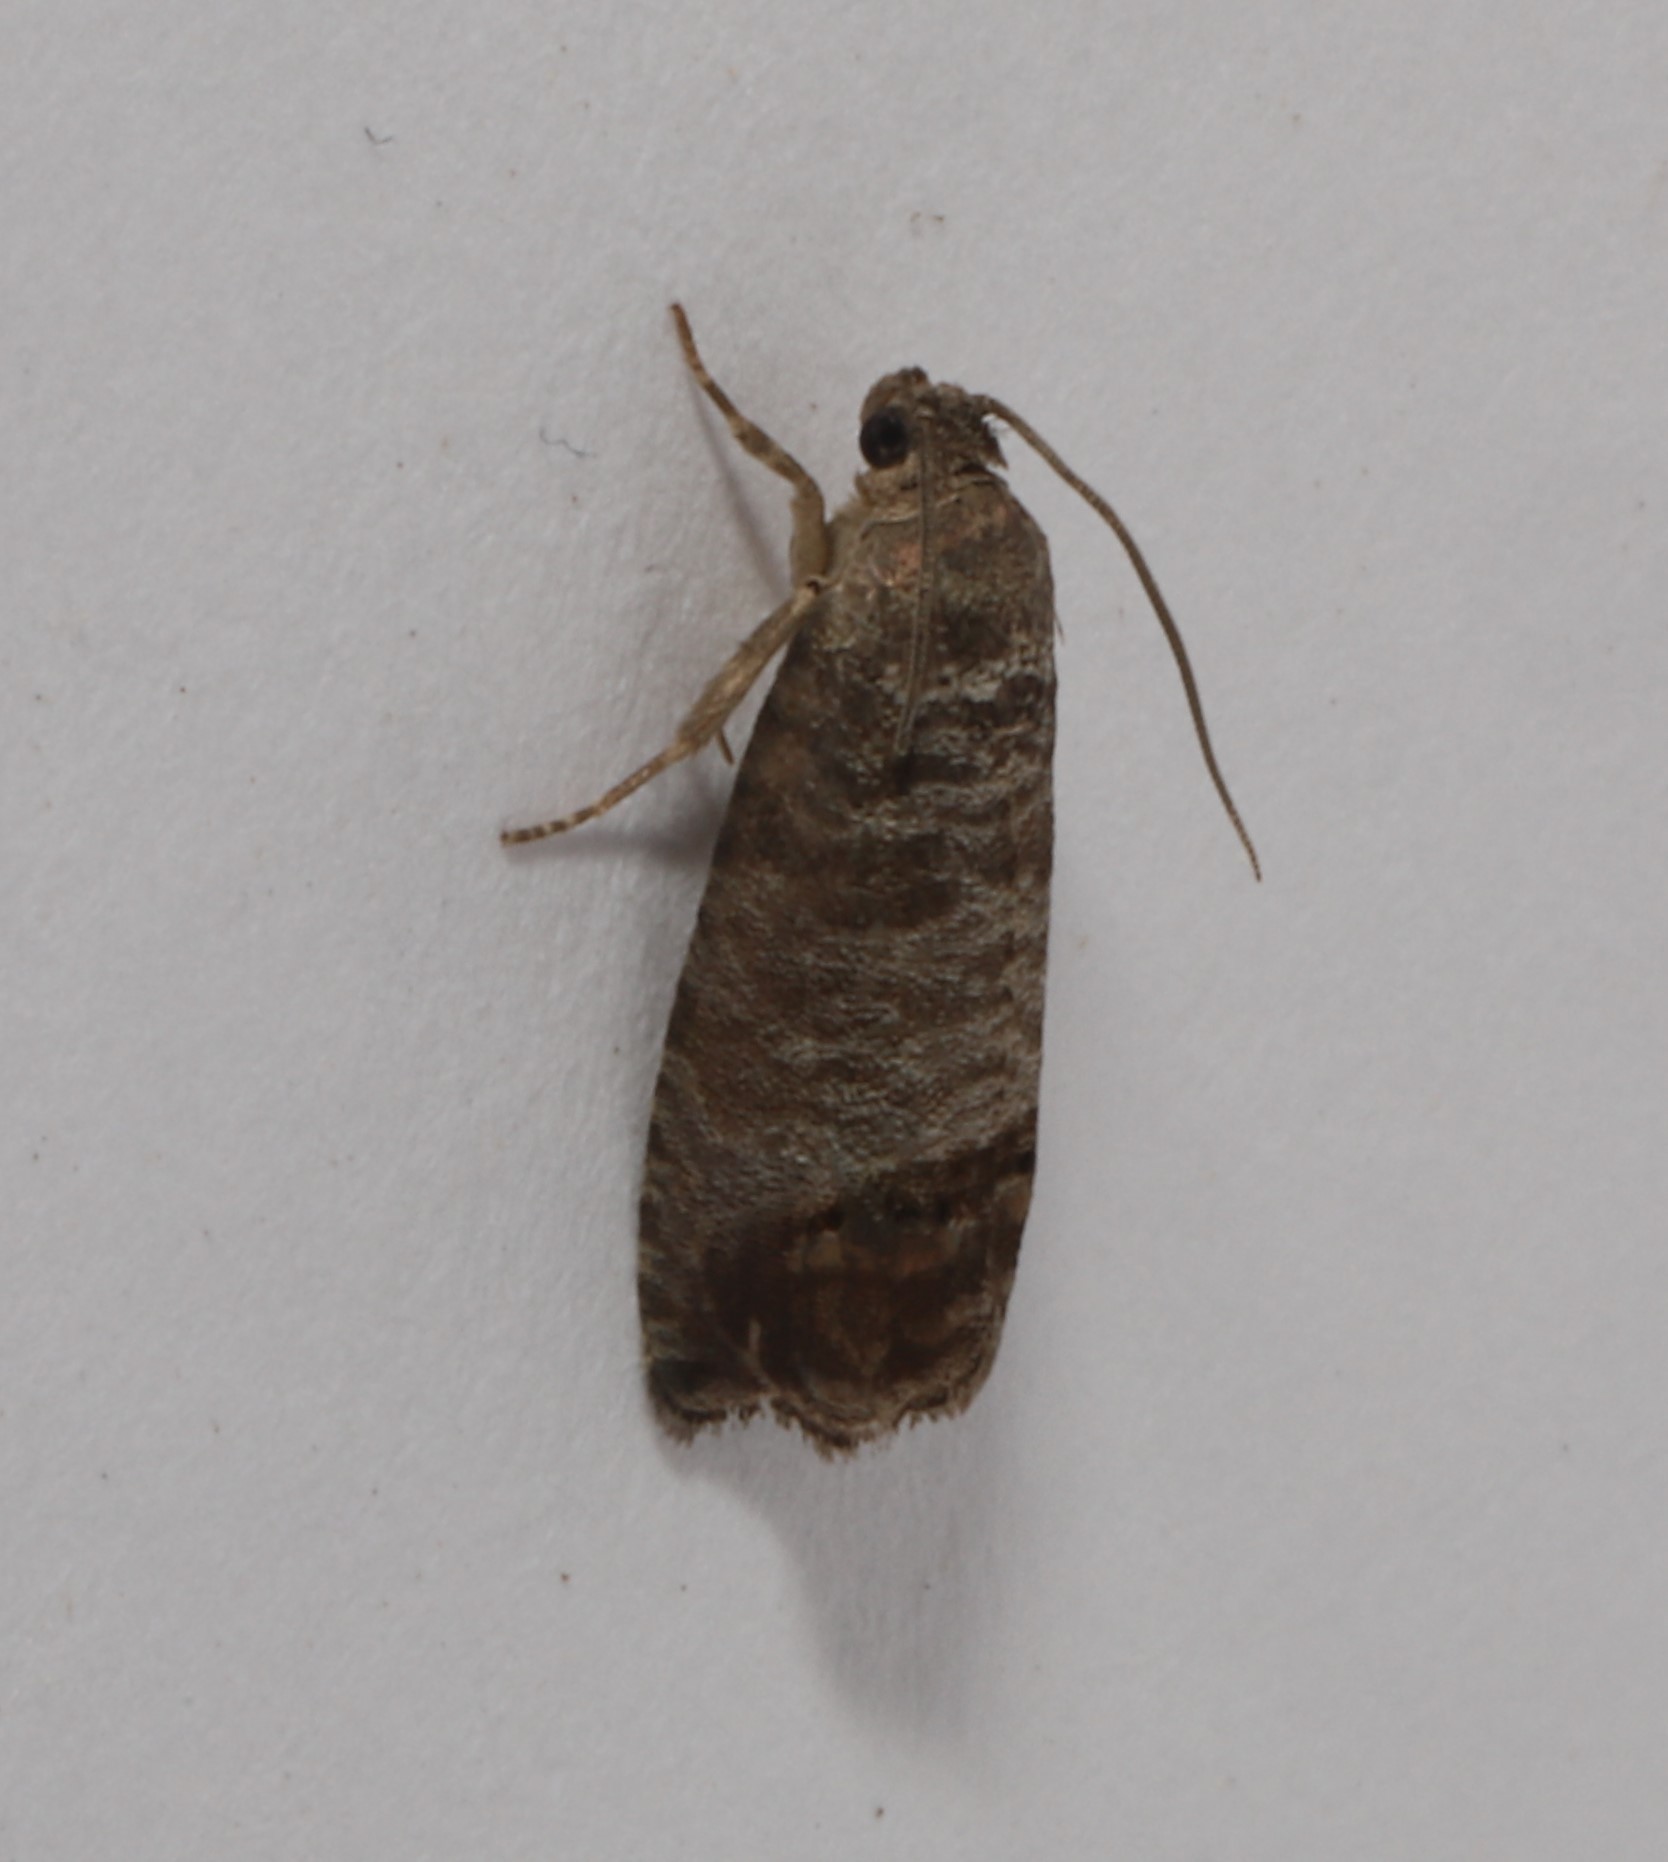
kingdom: Animalia
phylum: Arthropoda
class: Insecta
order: Lepidoptera
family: Tortricidae
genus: Cydia
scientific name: Cydia pomonella
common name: Codling moth
